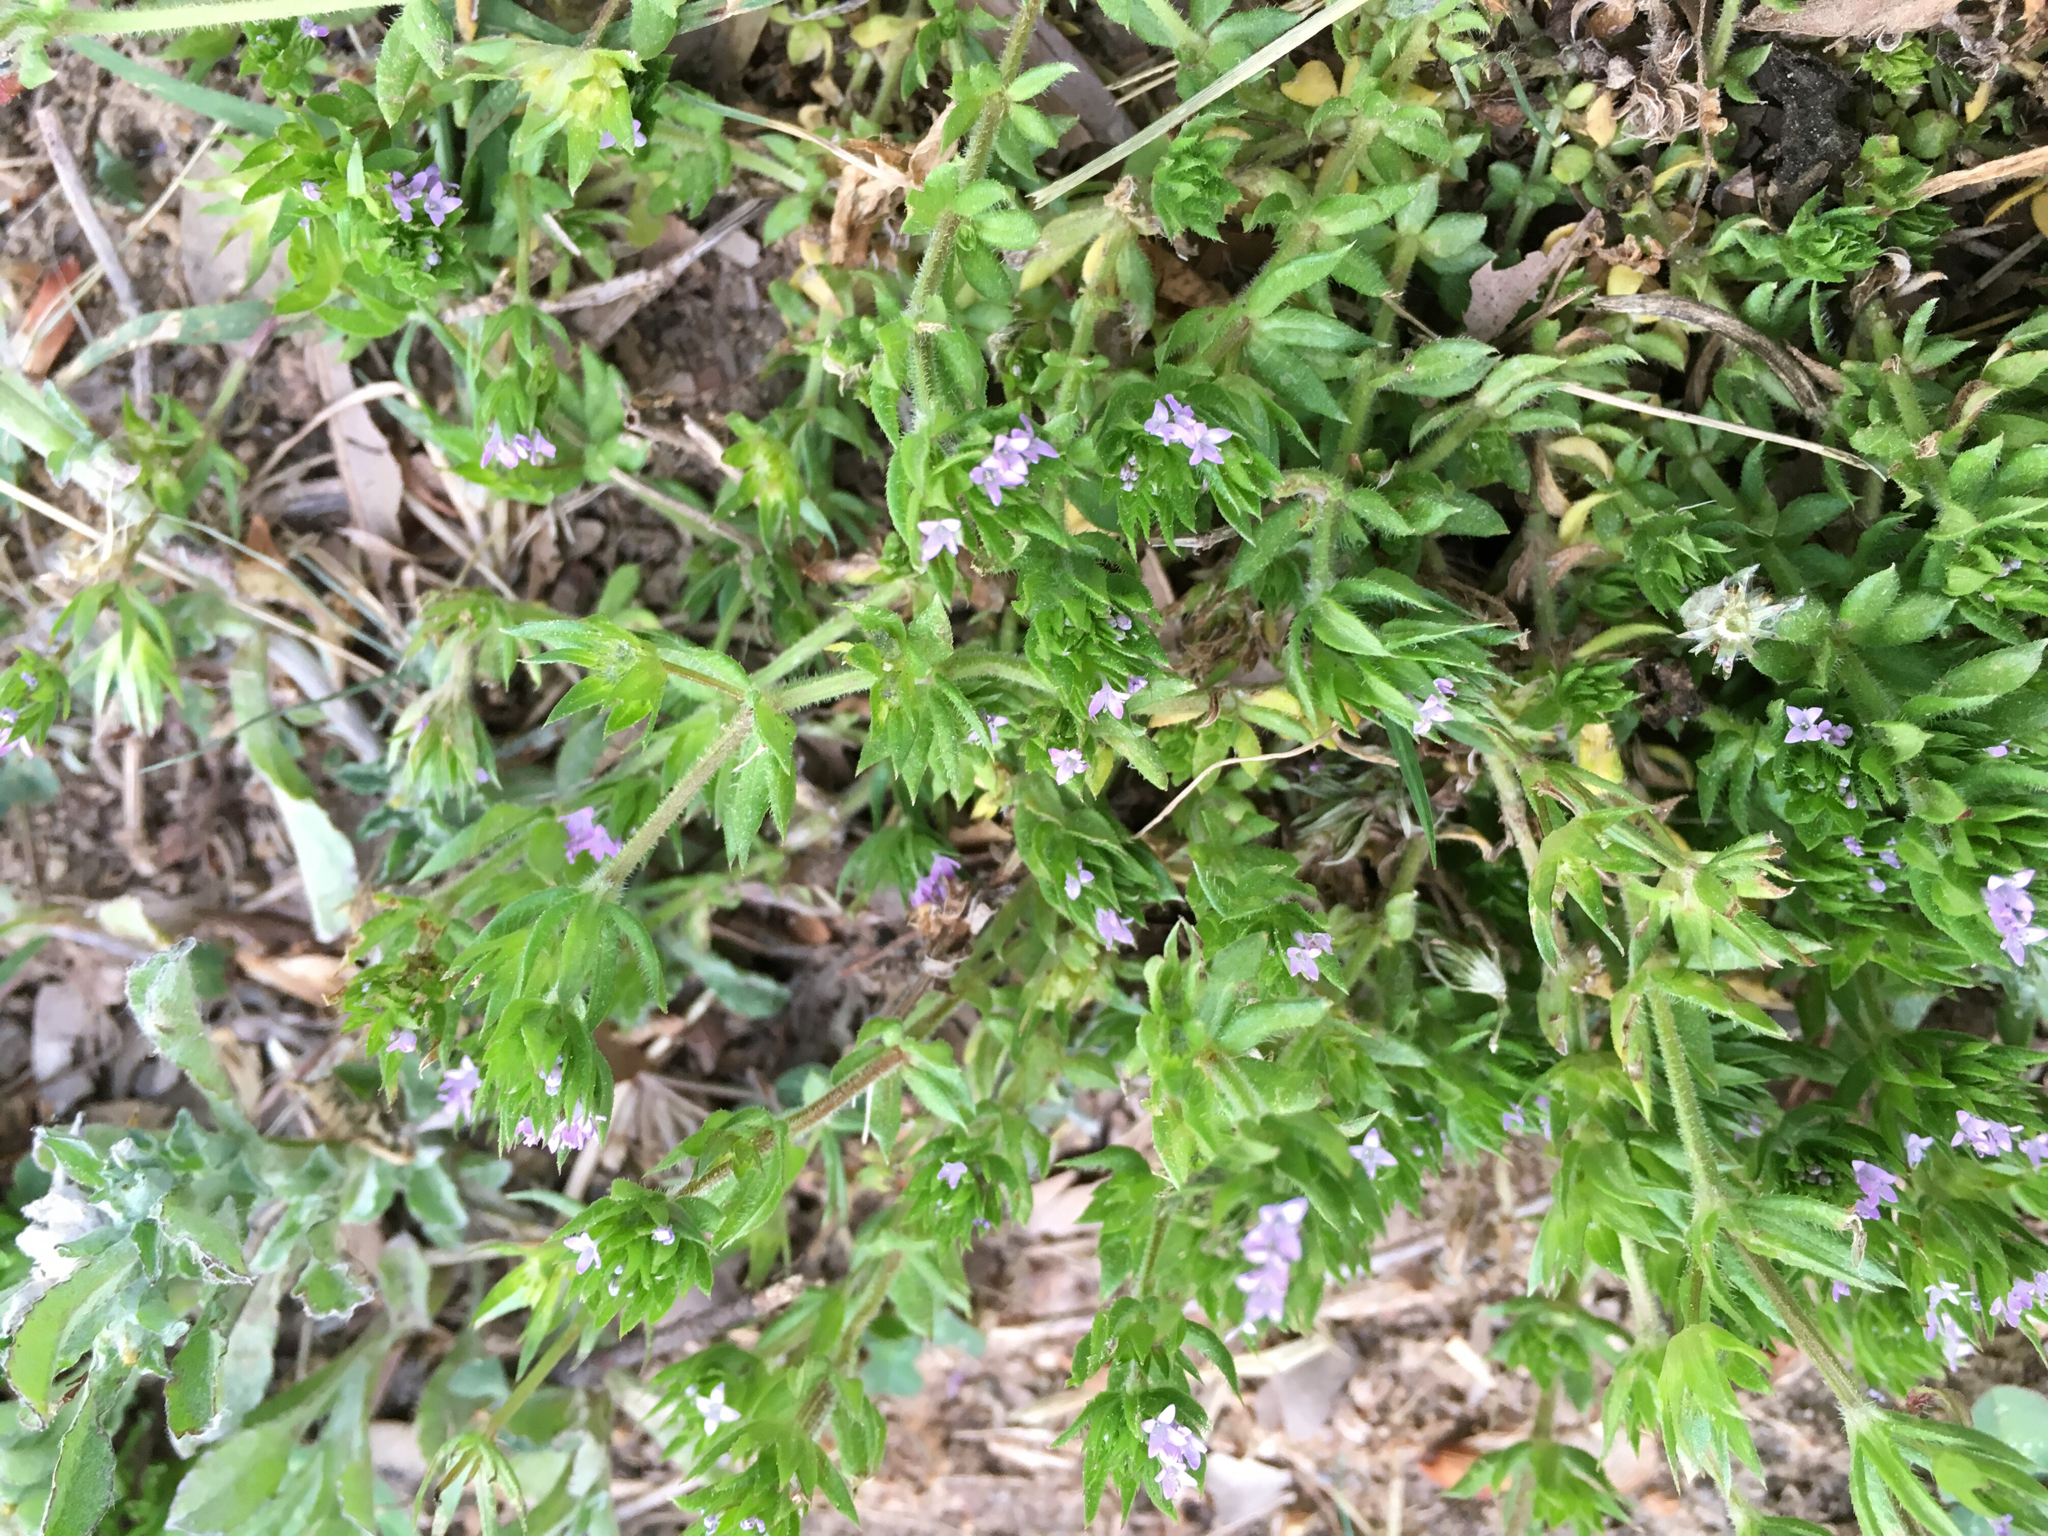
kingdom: Plantae
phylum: Tracheophyta
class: Magnoliopsida
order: Gentianales
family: Rubiaceae
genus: Sherardia
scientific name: Sherardia arvensis
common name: Field madder
